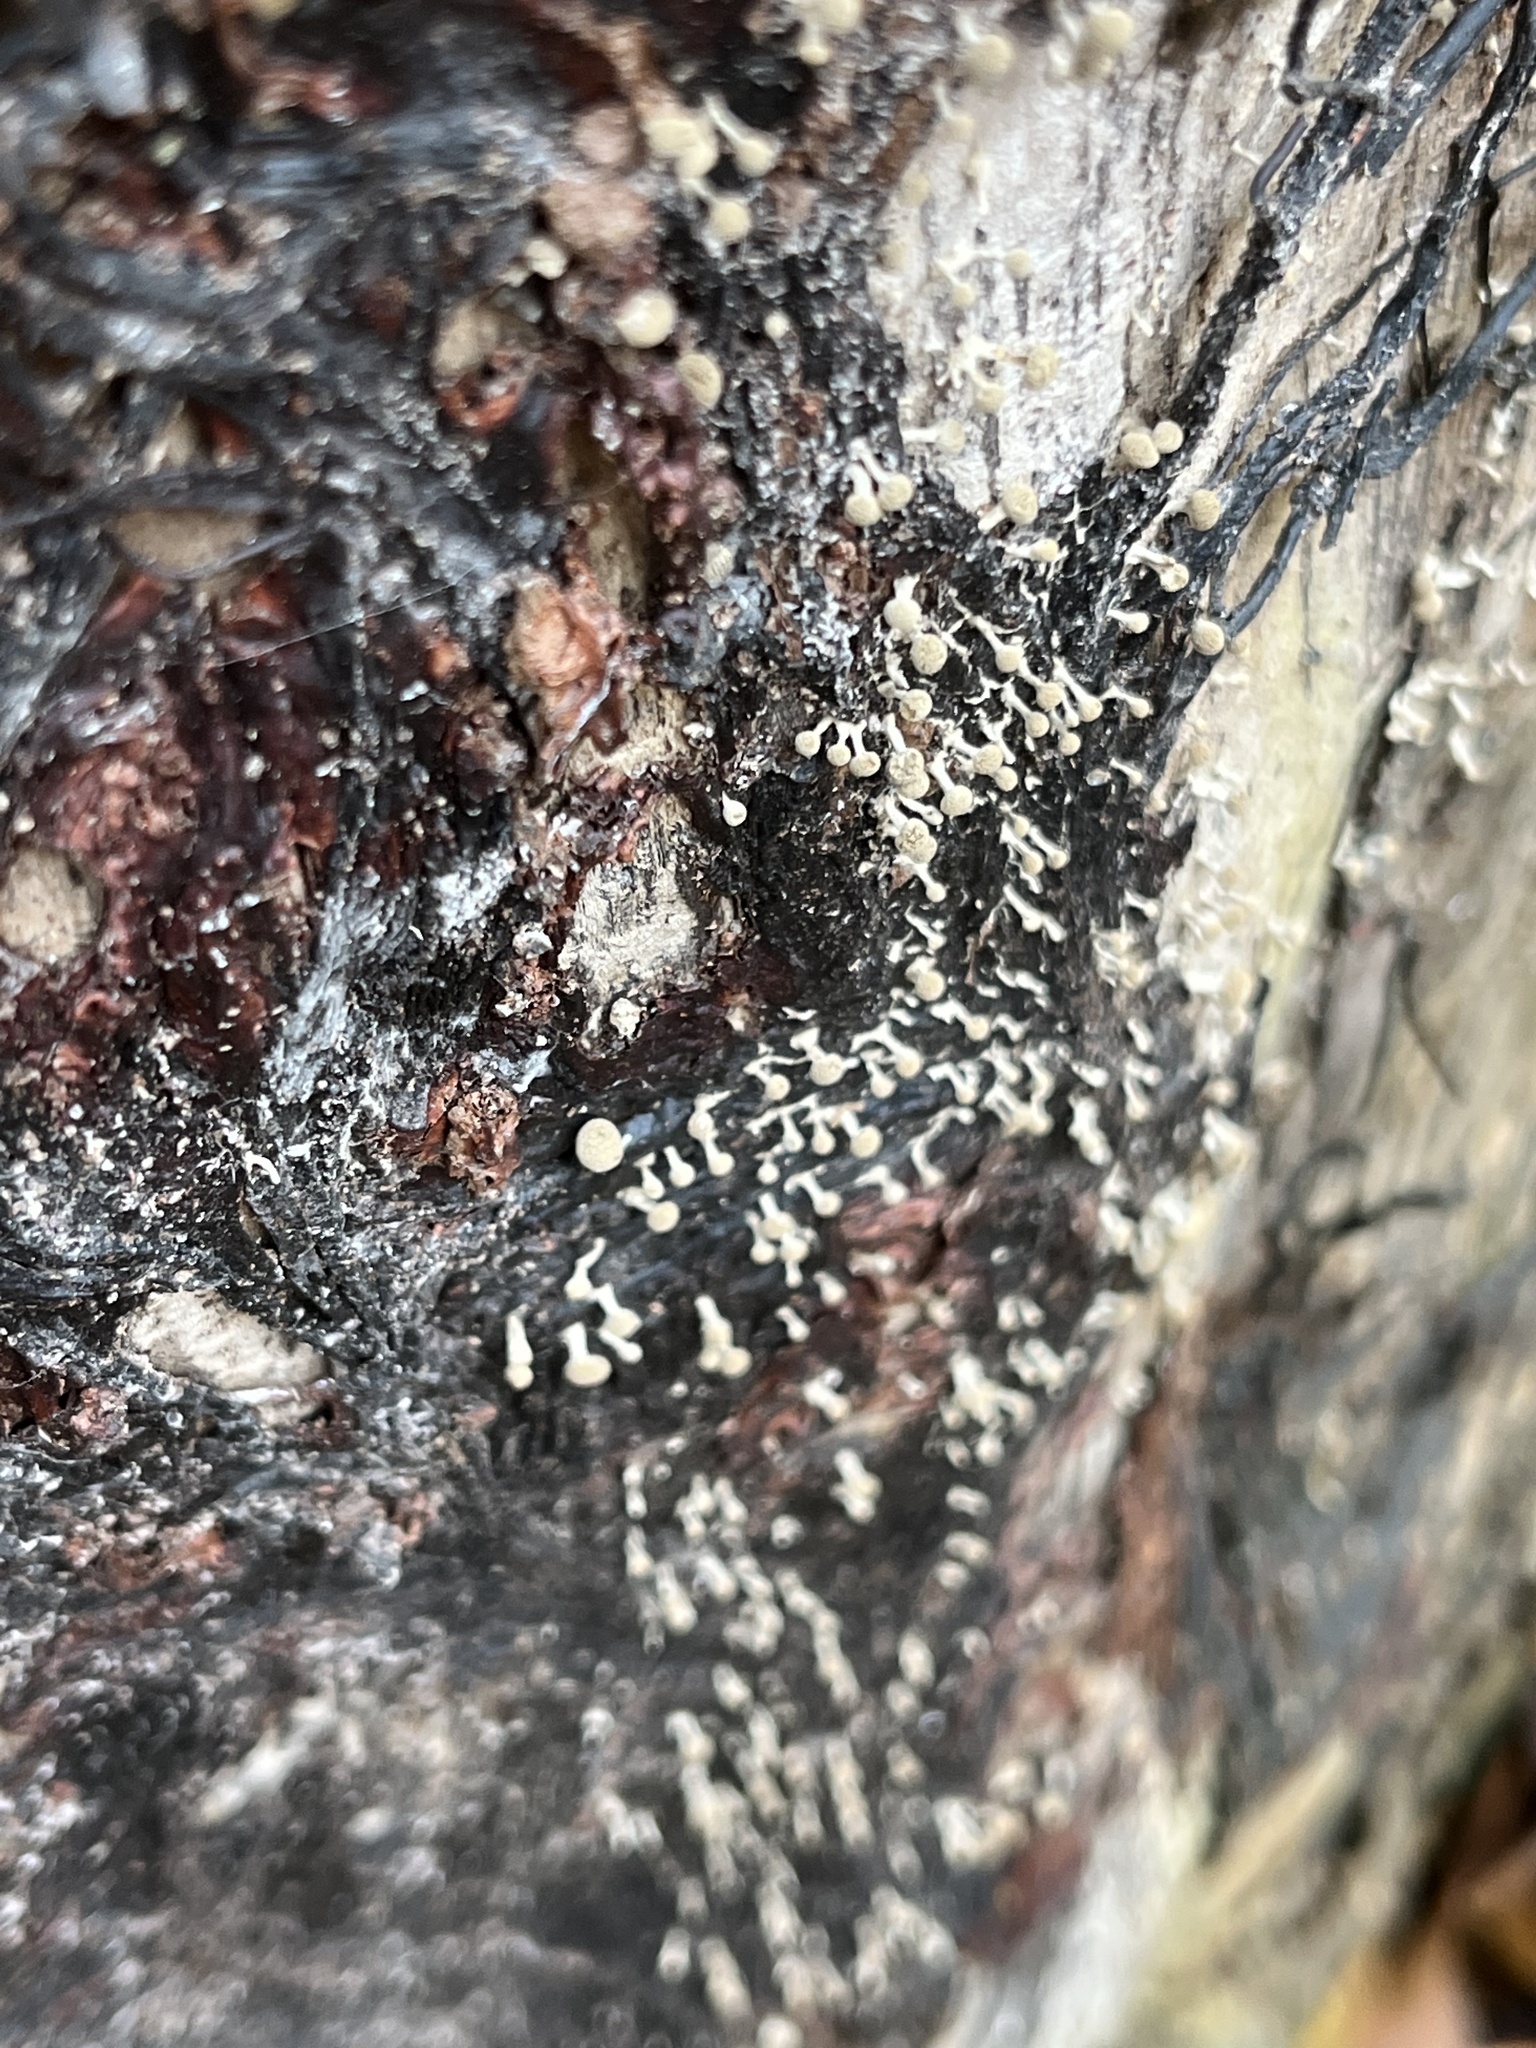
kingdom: Fungi
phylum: Basidiomycota
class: Atractiellomycetes
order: Atractiellales
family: Phleogenaceae
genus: Phleogena
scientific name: Phleogena faginea
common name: Fenugreek stalkball
